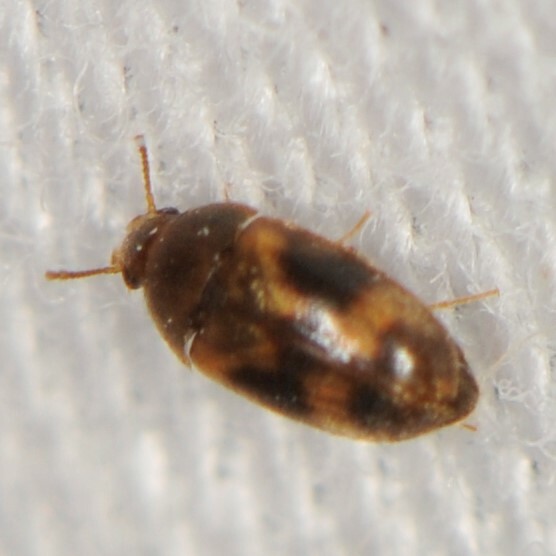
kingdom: Animalia
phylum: Arthropoda
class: Insecta
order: Coleoptera
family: Mycetophagidae
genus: Litargus
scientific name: Litargus
